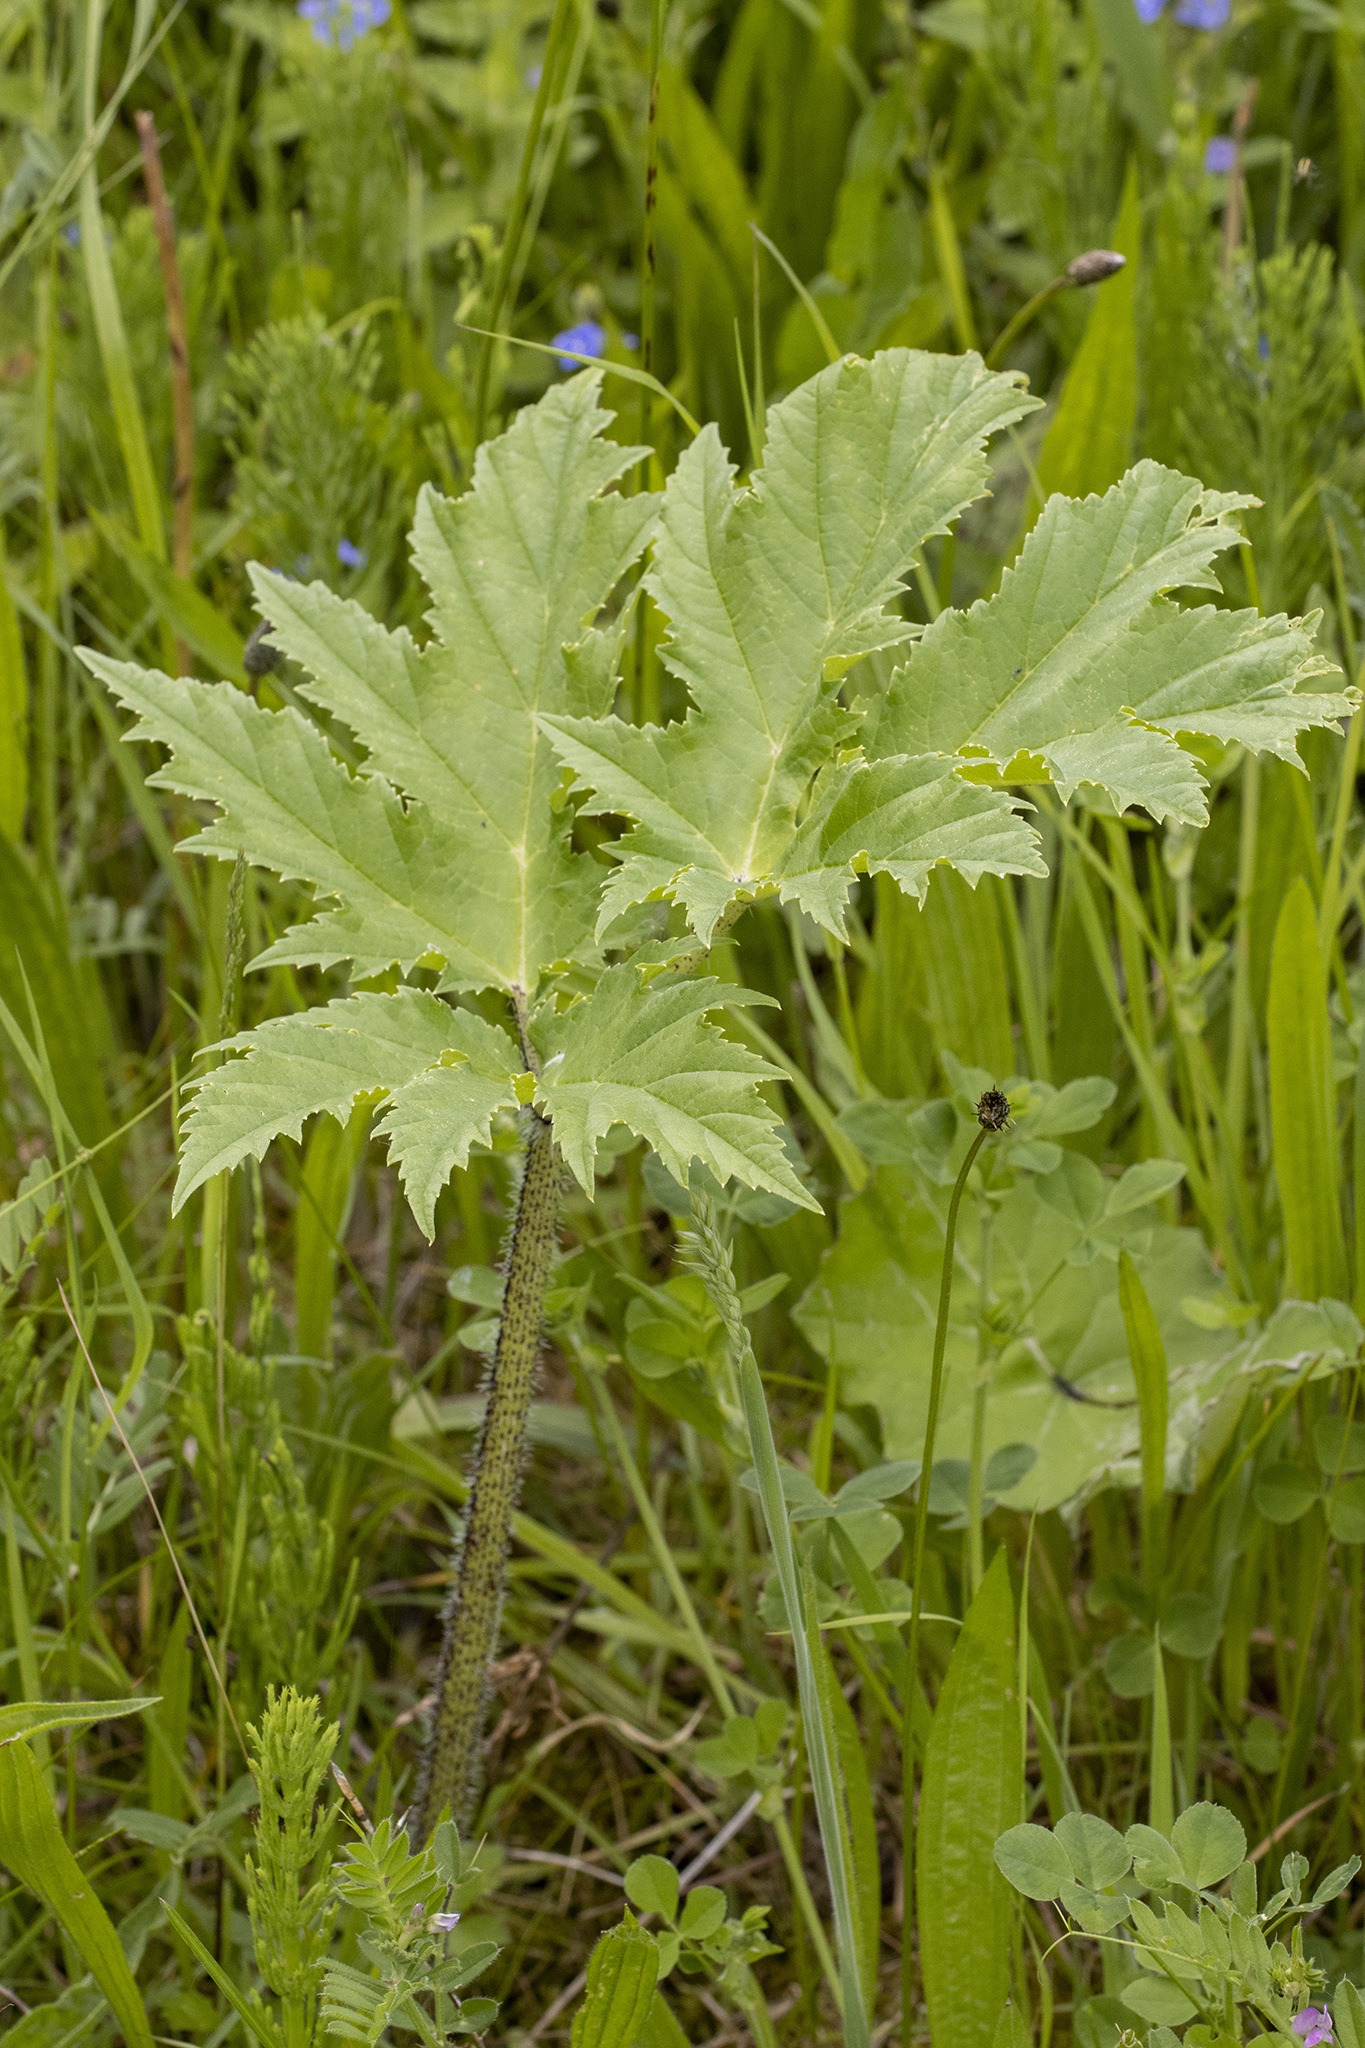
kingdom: Plantae
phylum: Tracheophyta
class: Magnoliopsida
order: Apiales
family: Apiaceae
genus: Heracleum
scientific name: Heracleum mantegazzianum
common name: Giant hogweed
